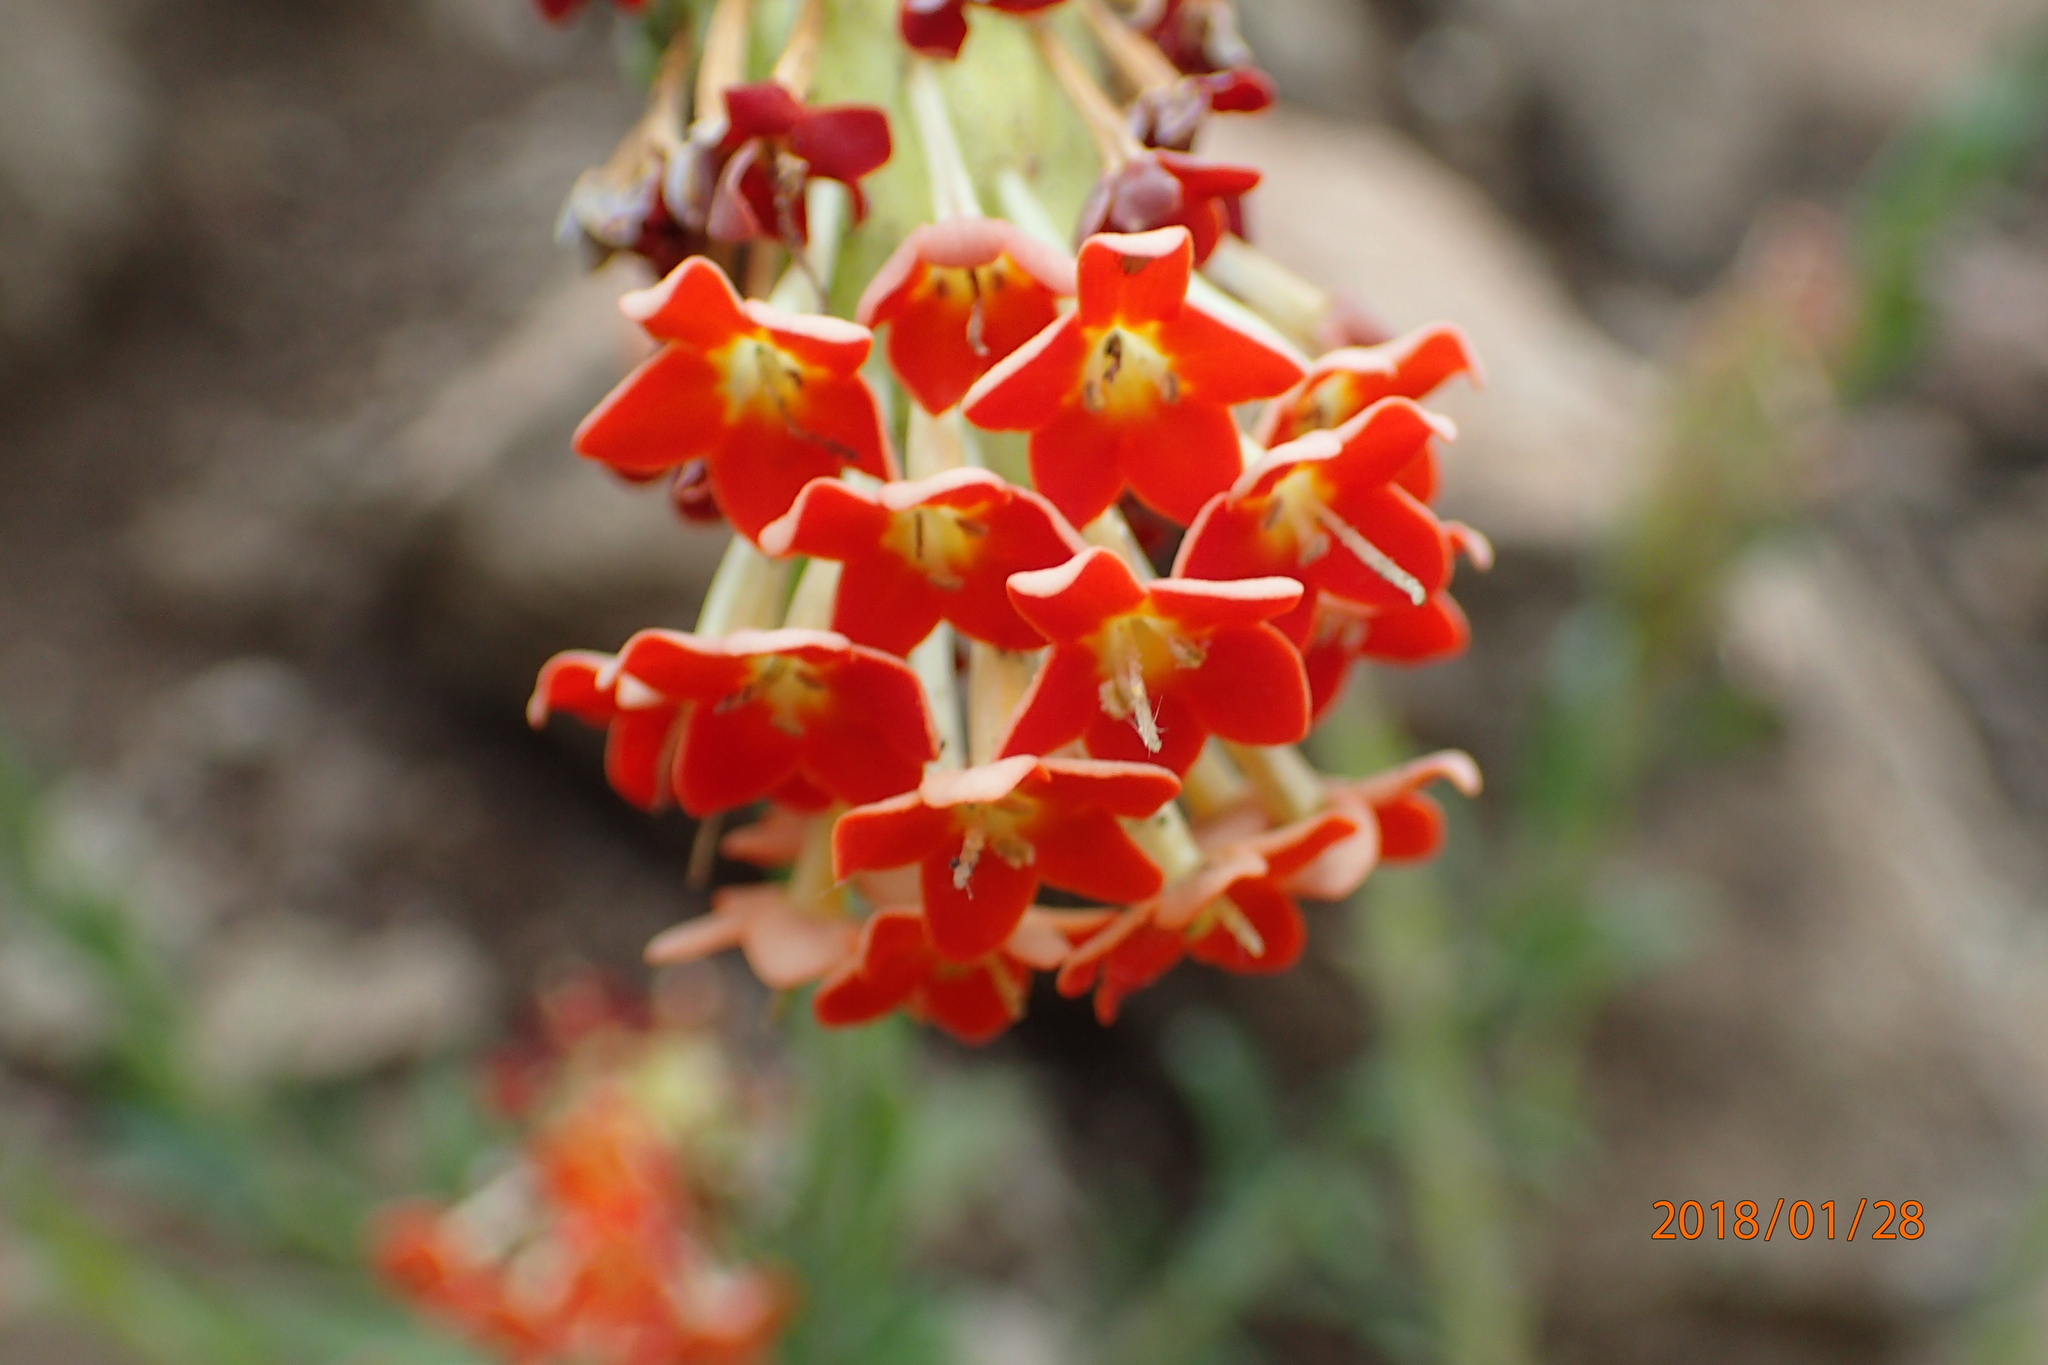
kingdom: Plantae
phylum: Tracheophyta
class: Magnoliopsida
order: Lamiales
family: Scrophulariaceae
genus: Glumicalyx
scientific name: Glumicalyx goseloides
